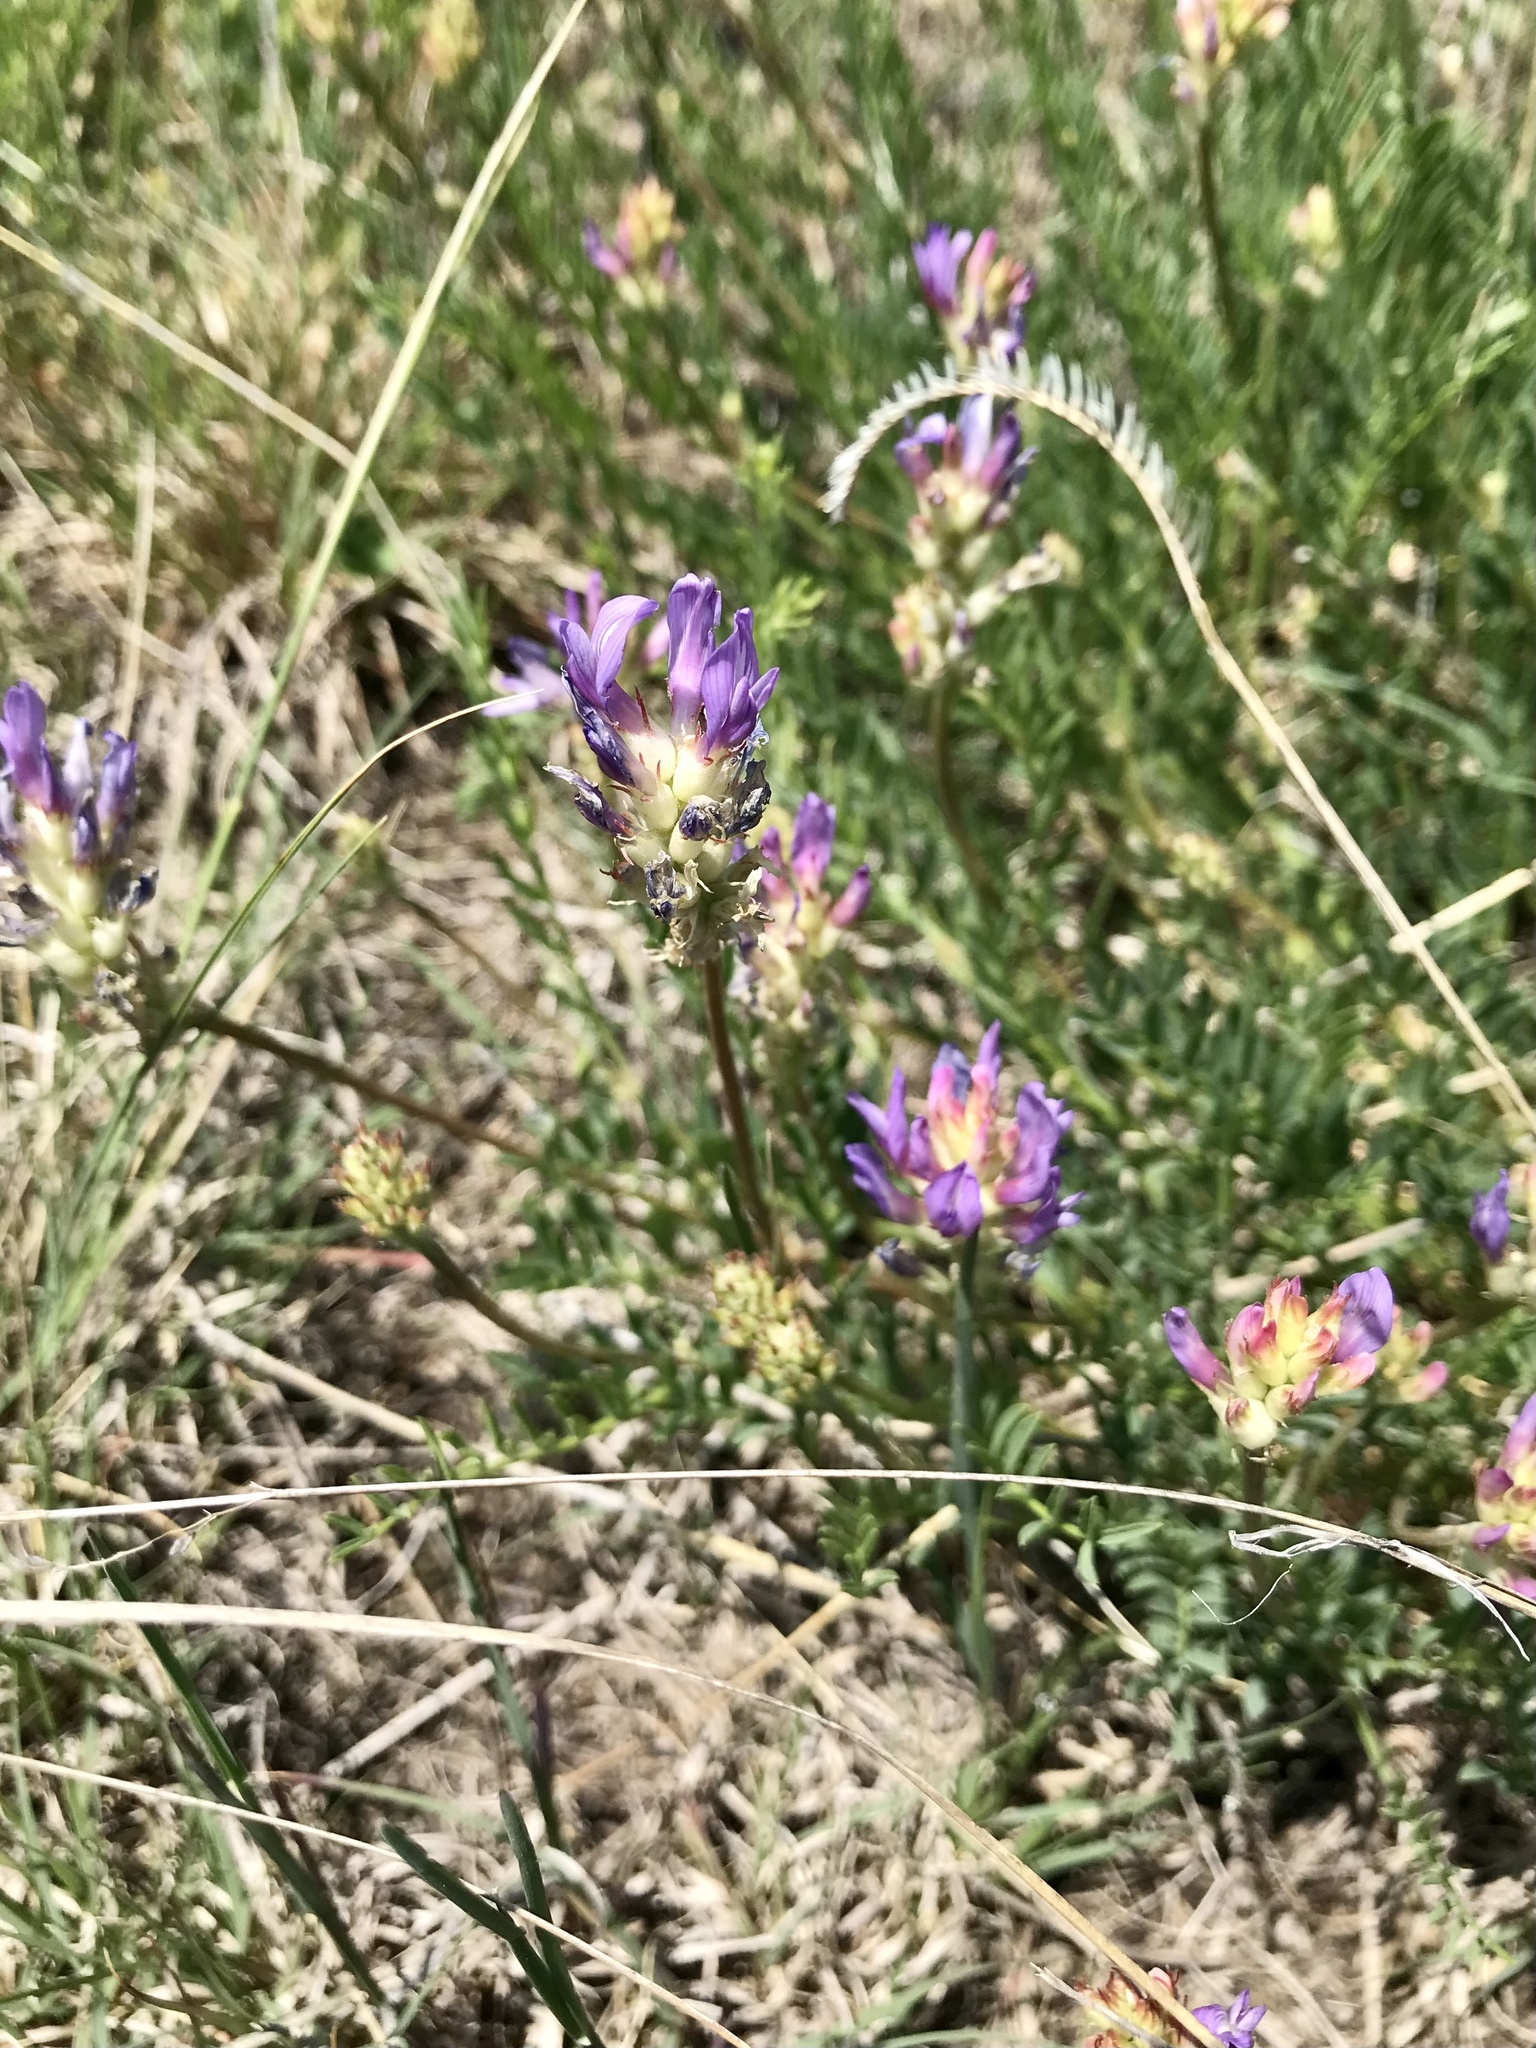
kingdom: Plantae
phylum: Tracheophyta
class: Magnoliopsida
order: Fabales
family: Fabaceae
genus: Astragalus
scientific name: Astragalus laxmannii
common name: Laxmann's milk-vetch
